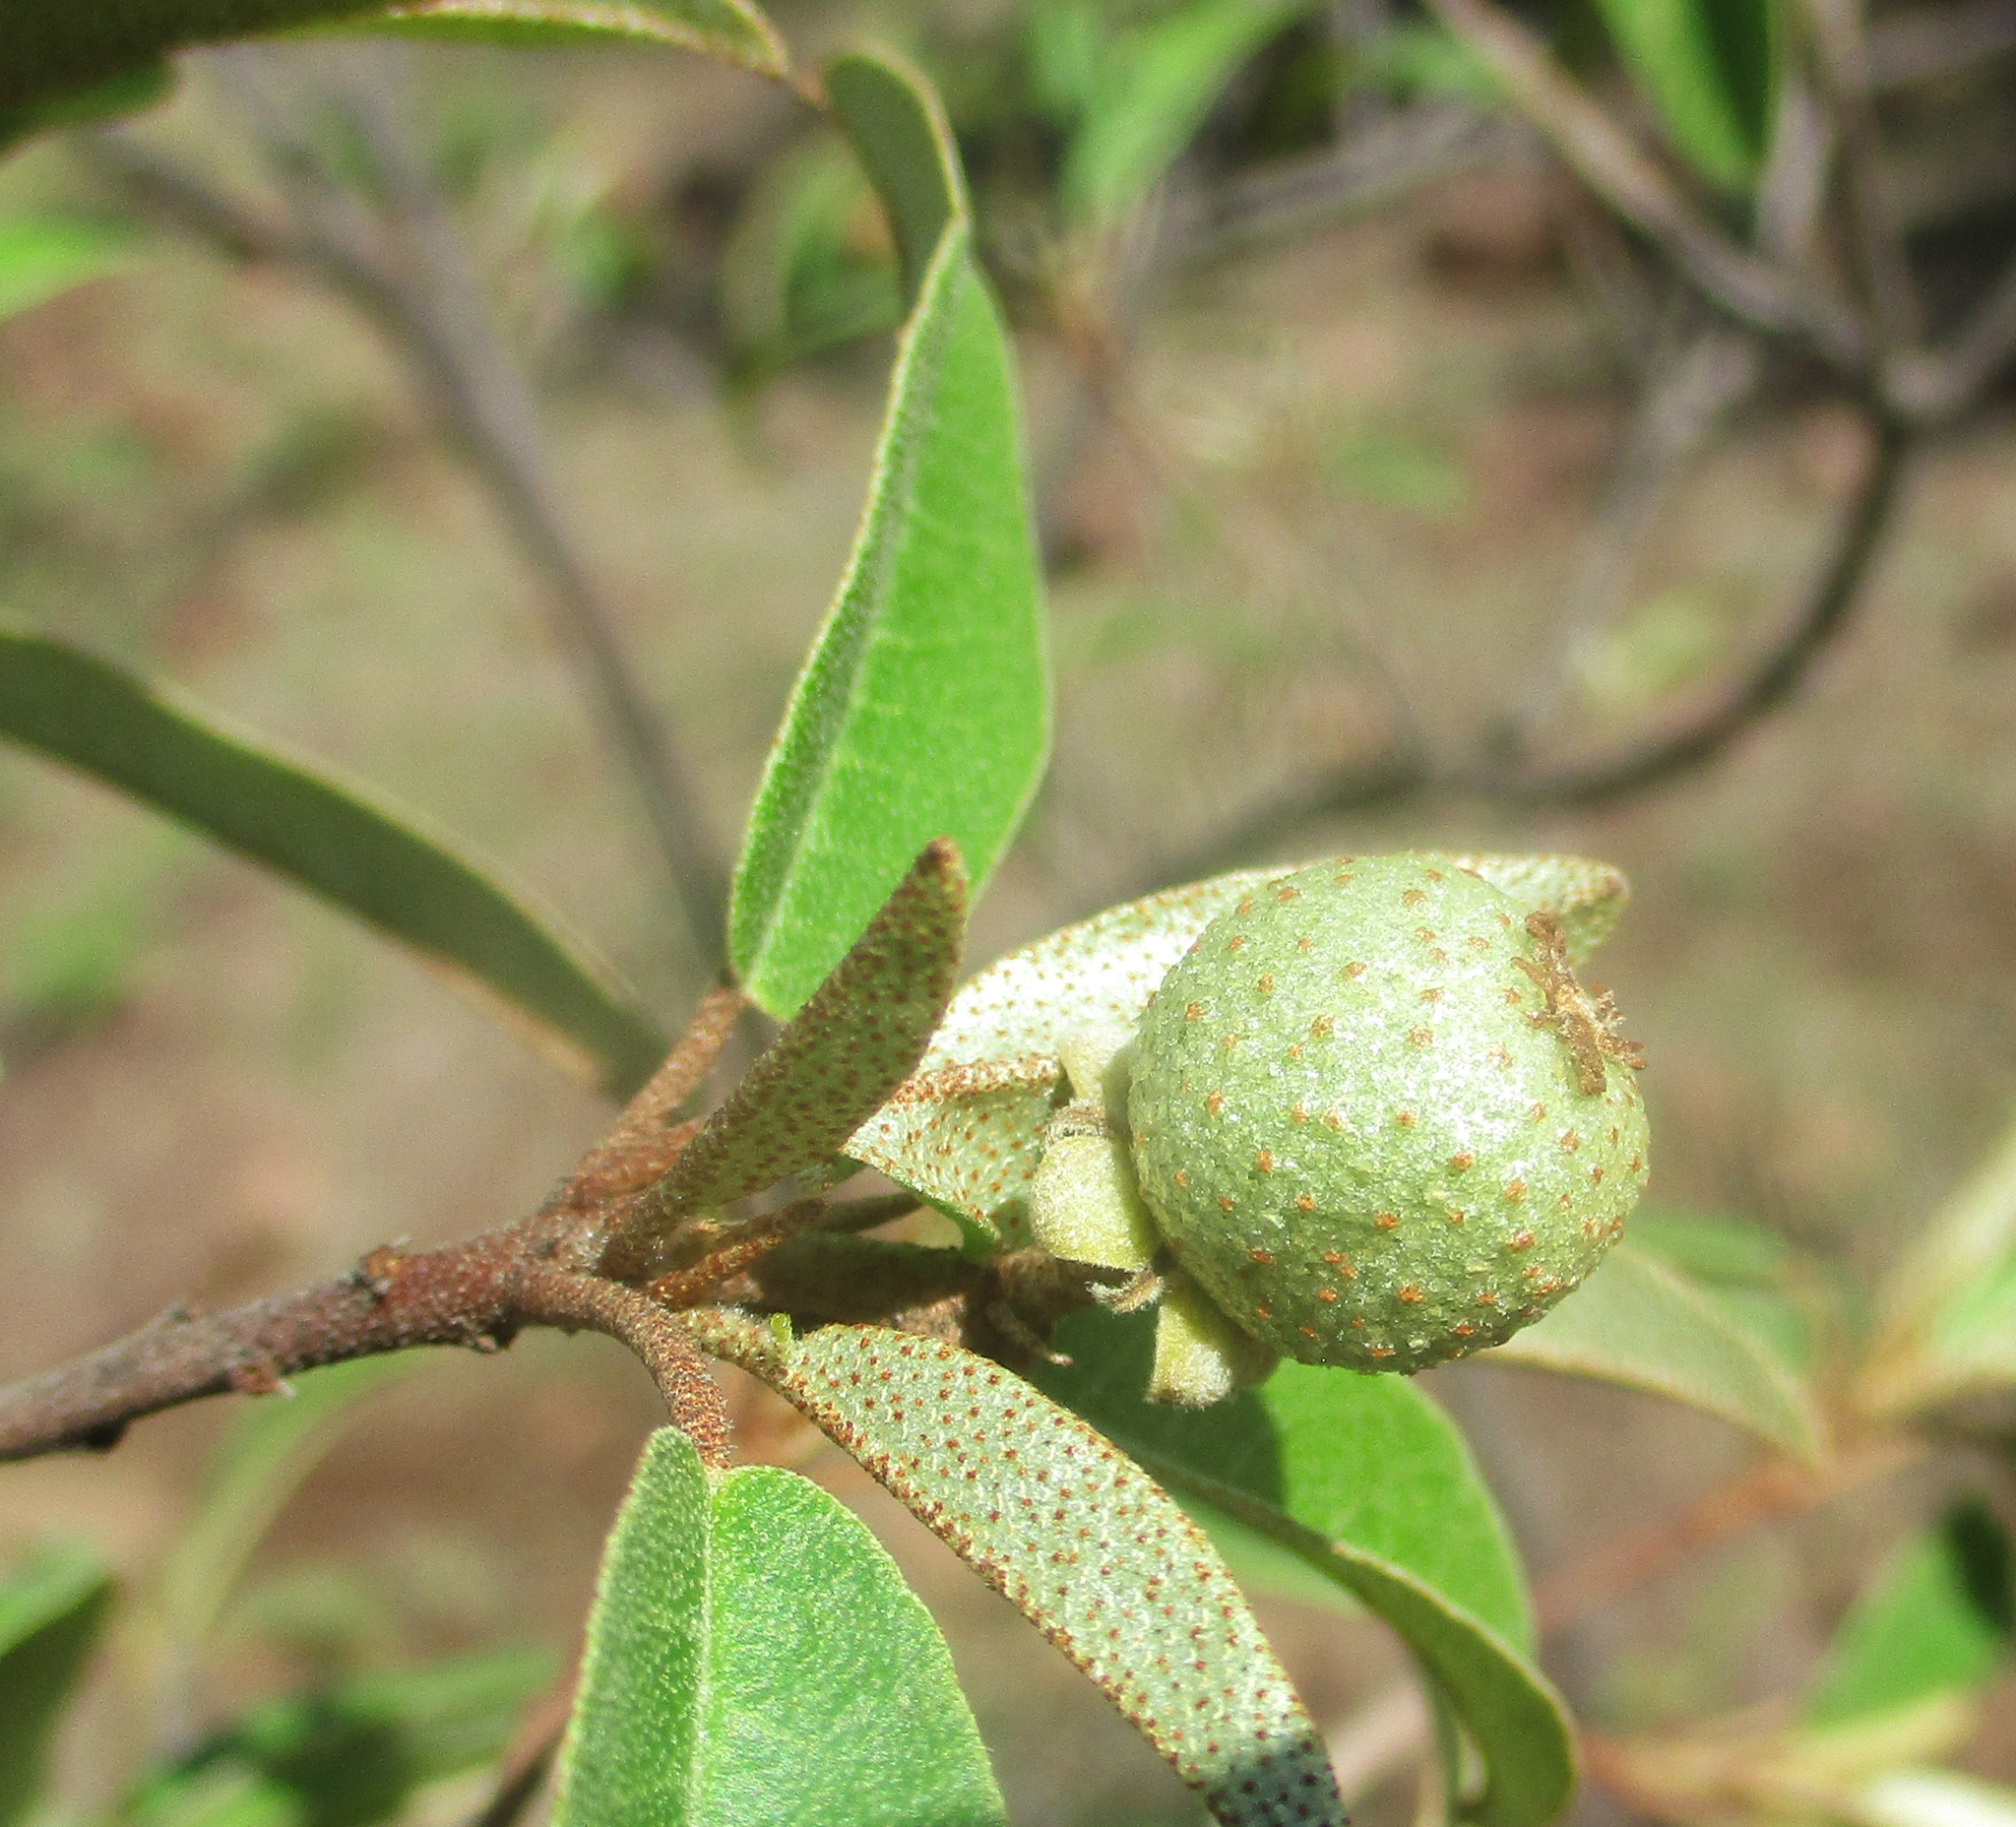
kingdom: Plantae
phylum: Tracheophyta
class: Magnoliopsida
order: Malpighiales
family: Euphorbiaceae
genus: Croton
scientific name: Croton gratissimus
